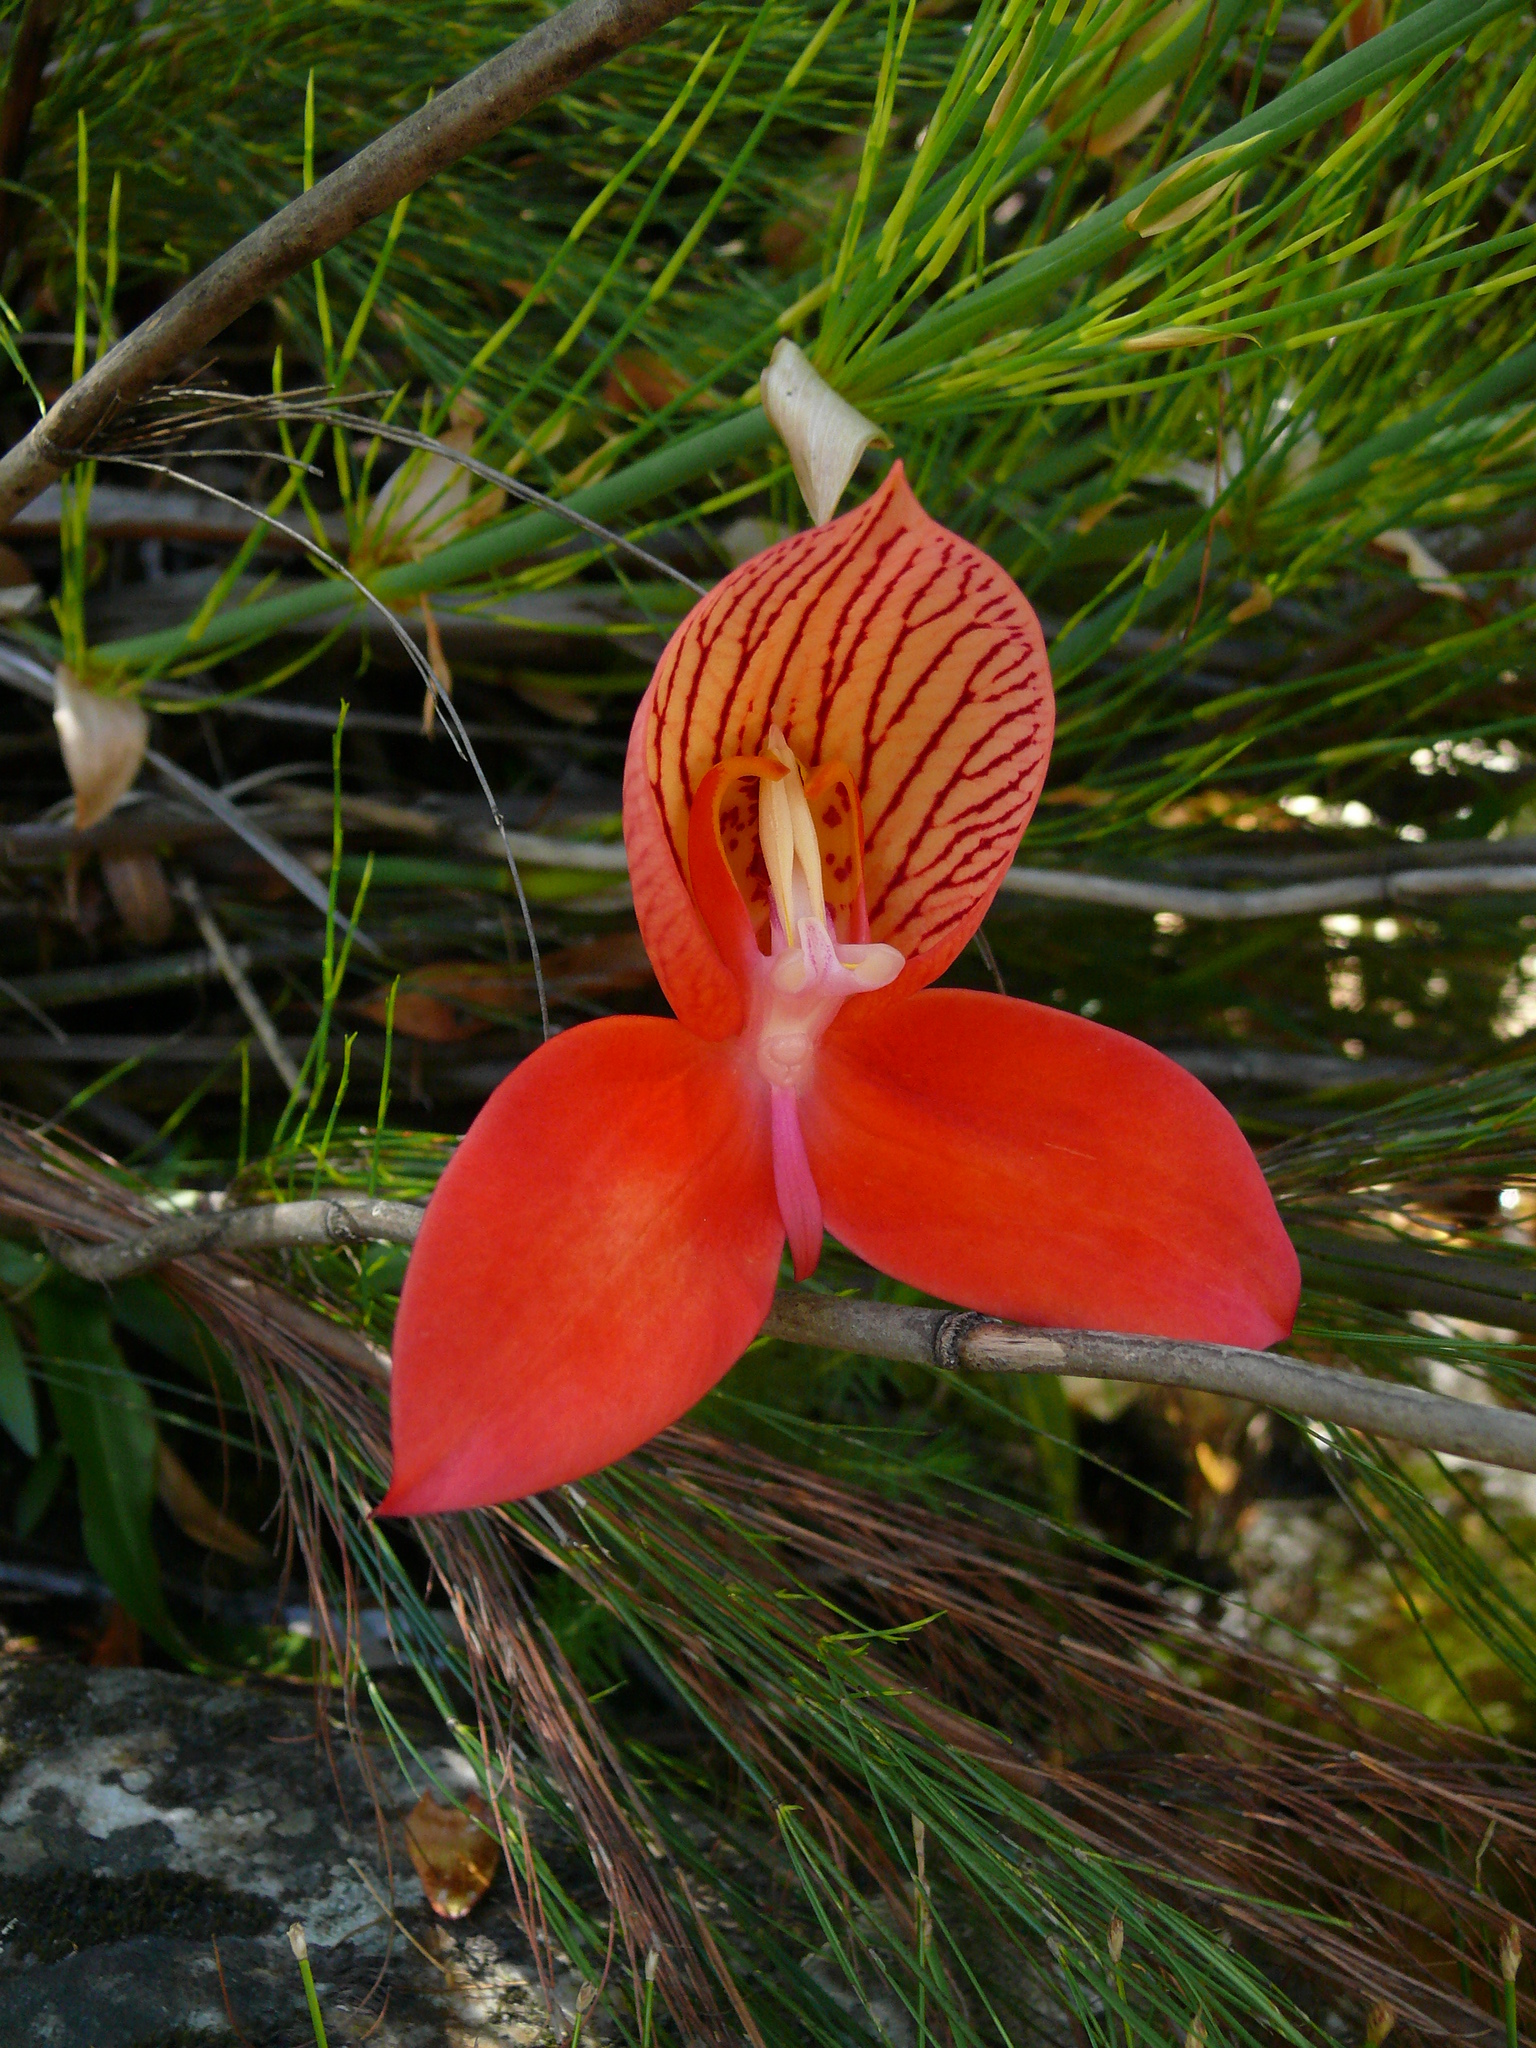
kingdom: Plantae
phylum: Tracheophyta
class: Liliopsida
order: Asparagales
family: Orchidaceae
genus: Disa
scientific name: Disa uniflora
